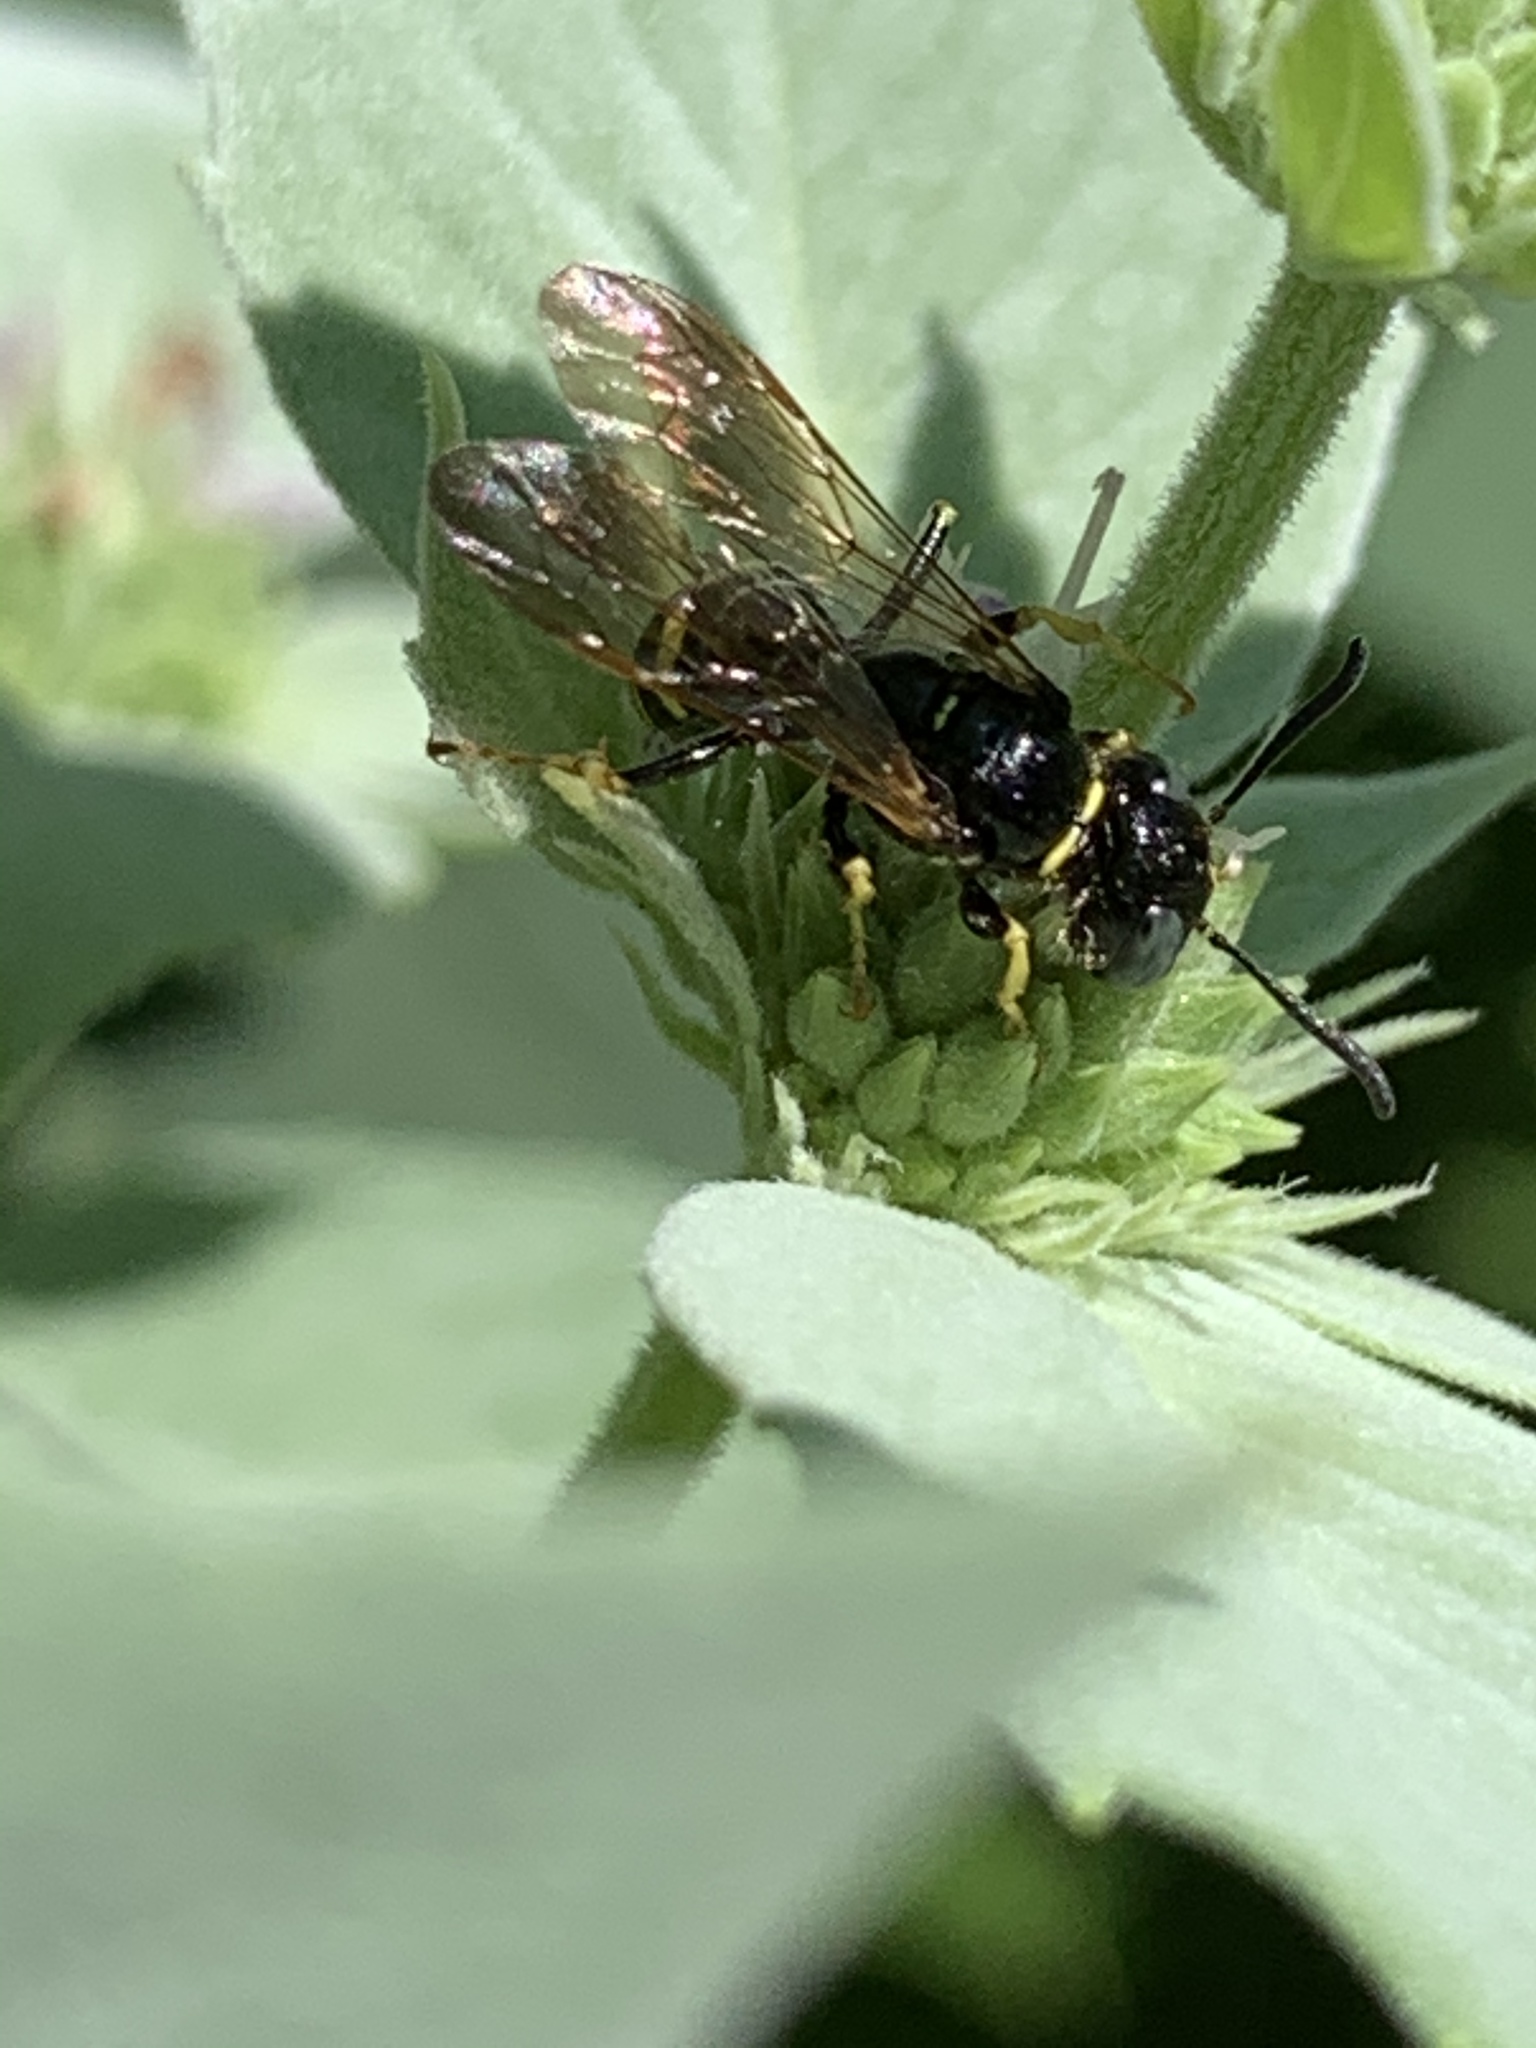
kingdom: Animalia
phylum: Arthropoda
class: Insecta
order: Hymenoptera
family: Crabronidae
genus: Philanthus
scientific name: Philanthus bilunatus
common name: Two moons beewolf
